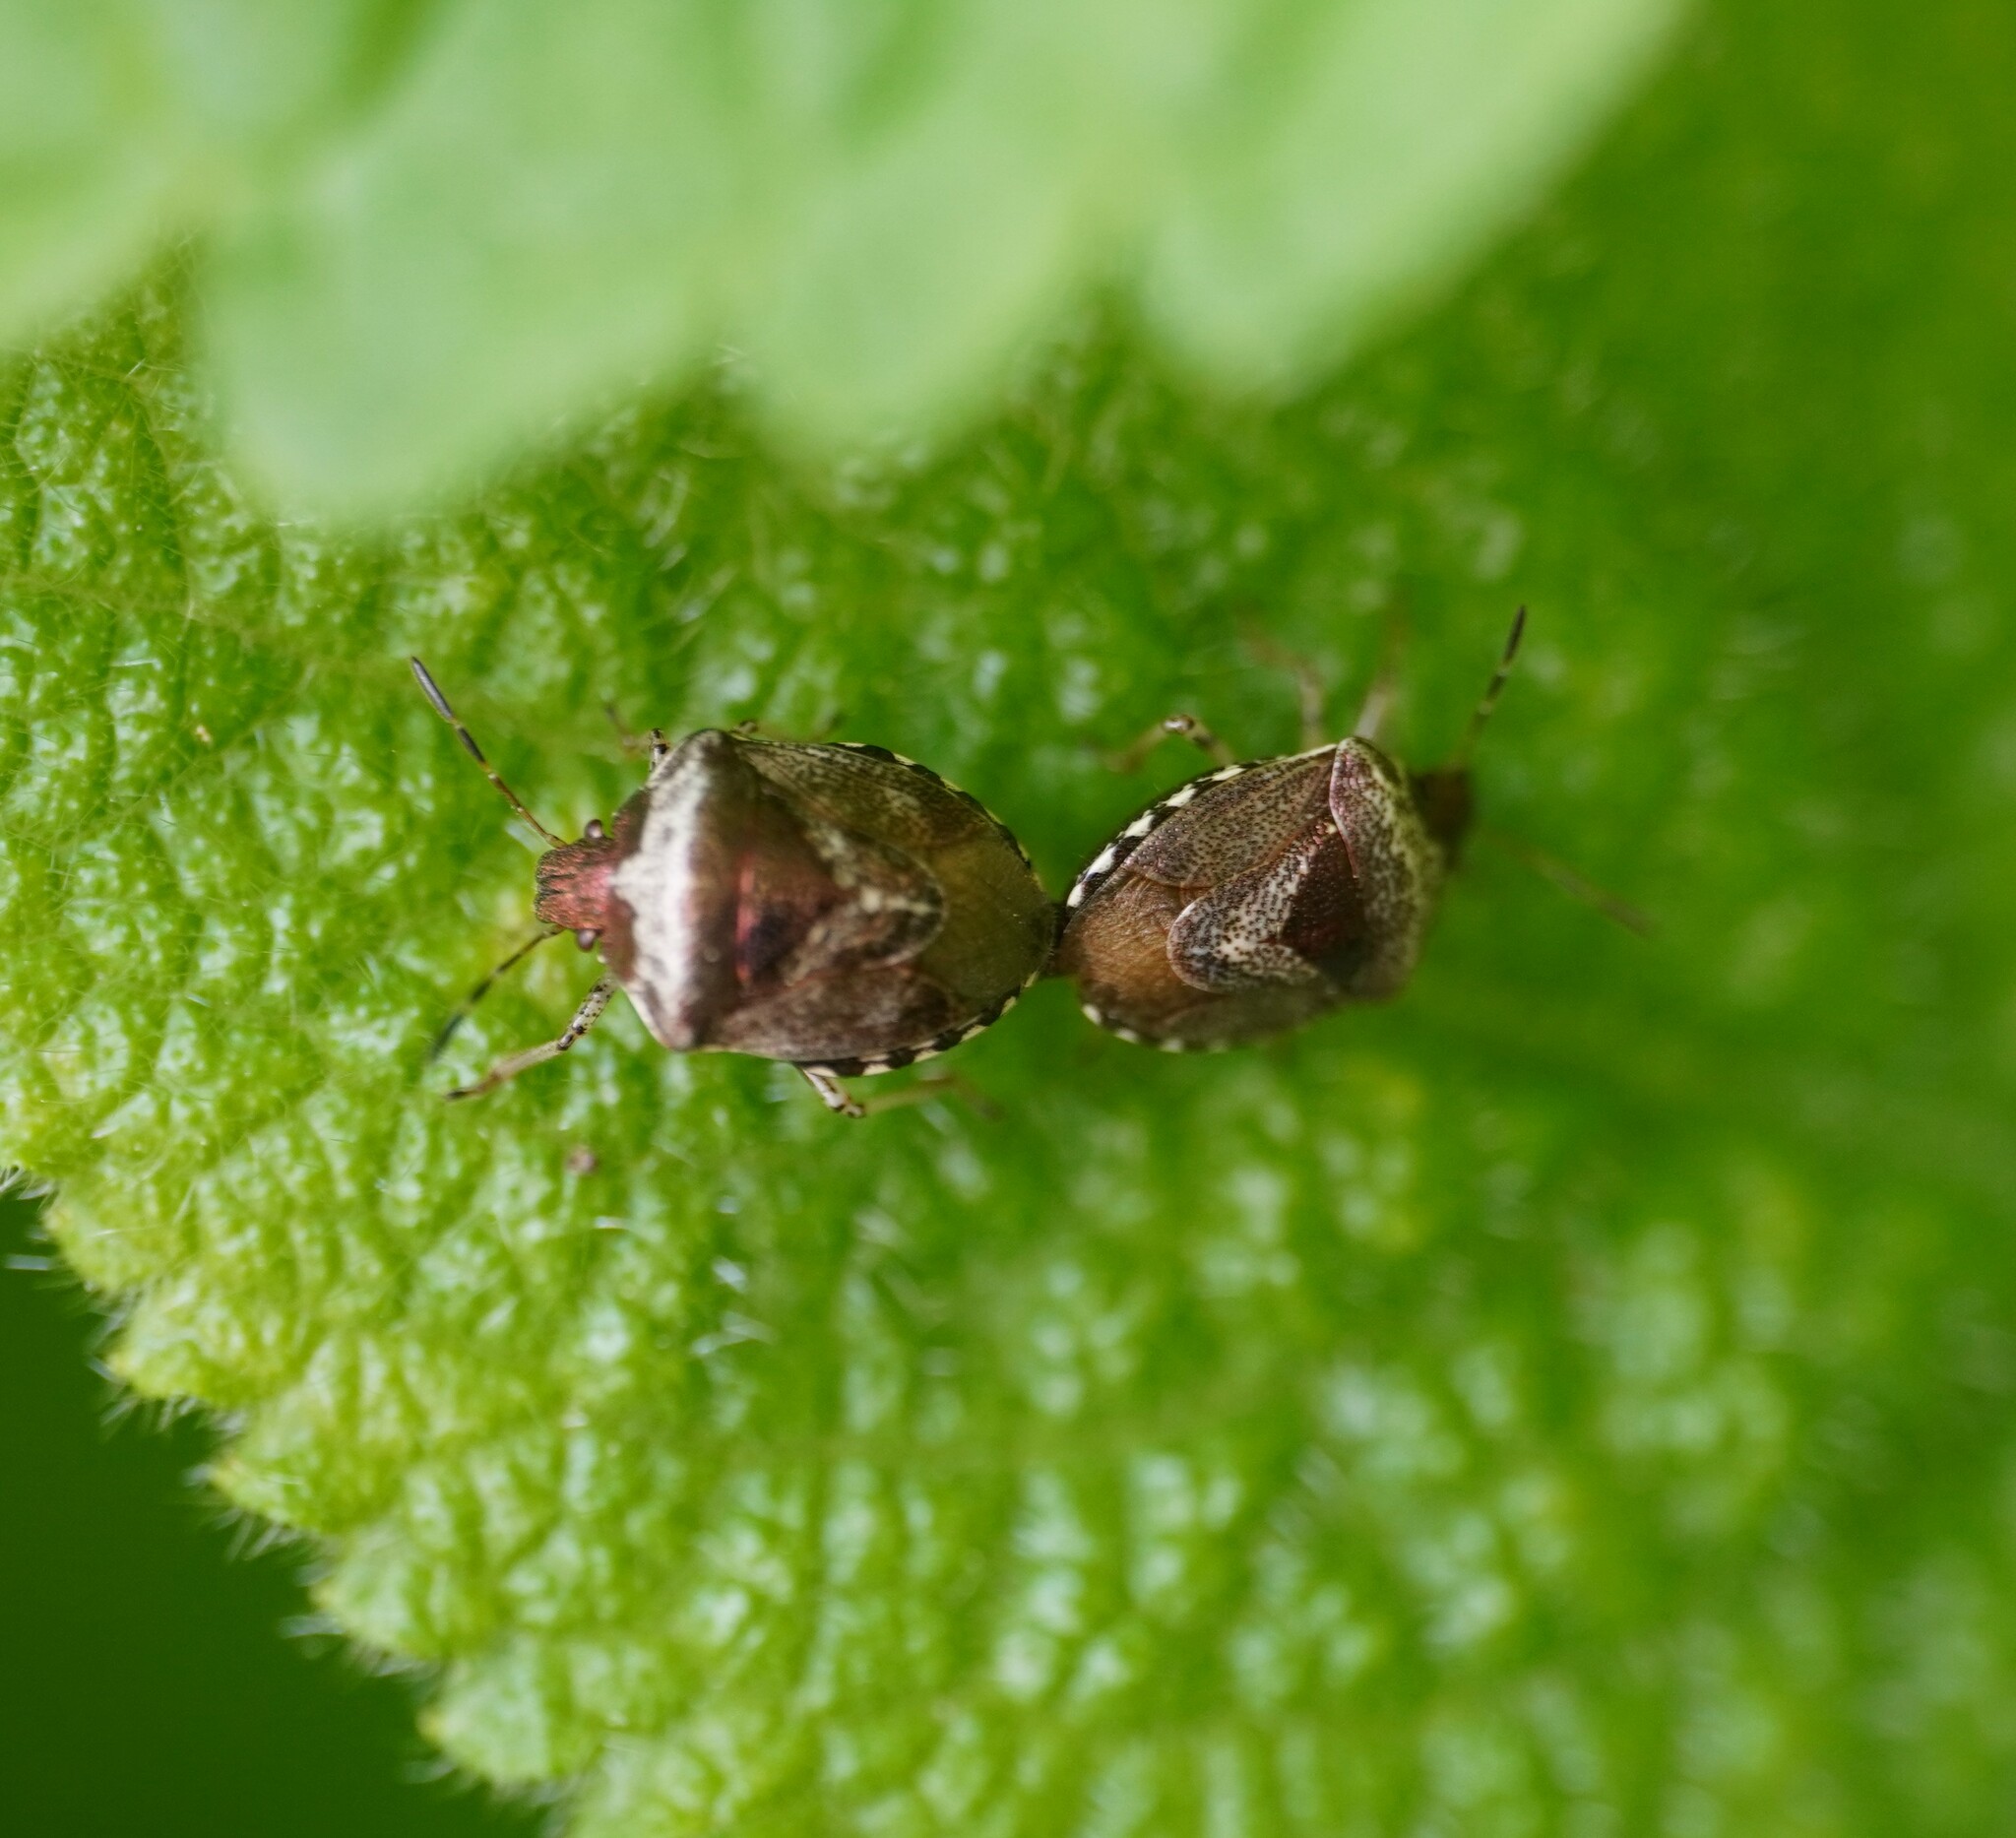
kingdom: Animalia
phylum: Arthropoda
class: Insecta
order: Hemiptera
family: Pentatomidae
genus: Eysarcoris
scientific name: Eysarcoris venustissimus
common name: Woundwort shieldbug
